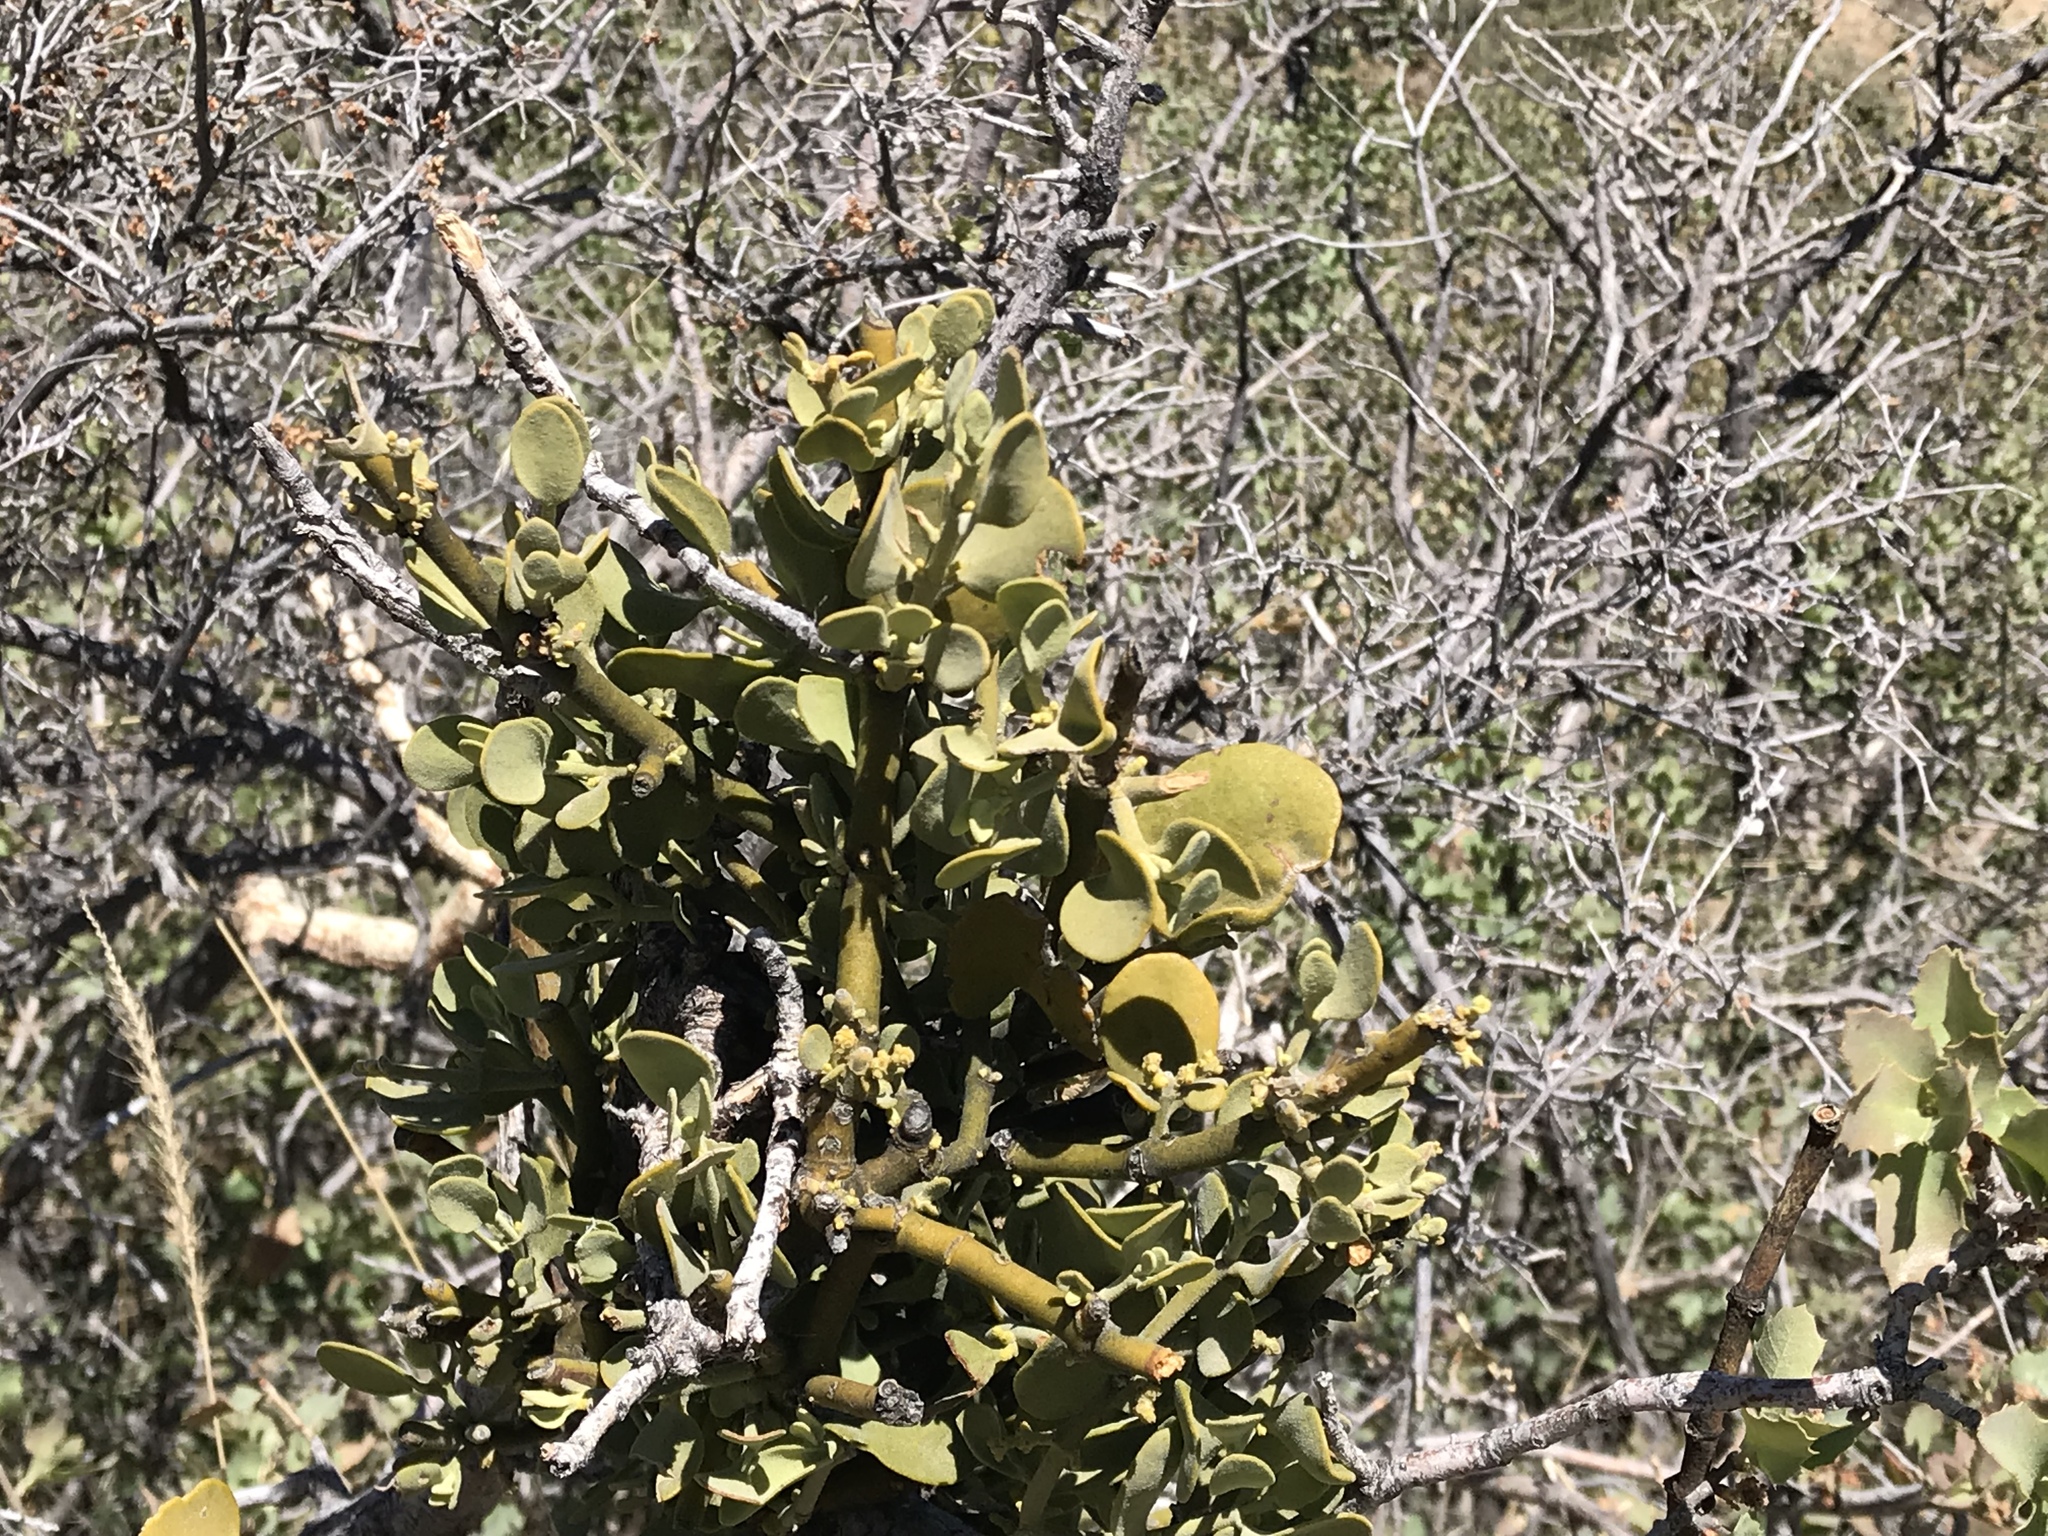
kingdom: Plantae
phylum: Tracheophyta
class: Magnoliopsida
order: Santalales
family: Viscaceae
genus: Phoradendron
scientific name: Phoradendron coryae
